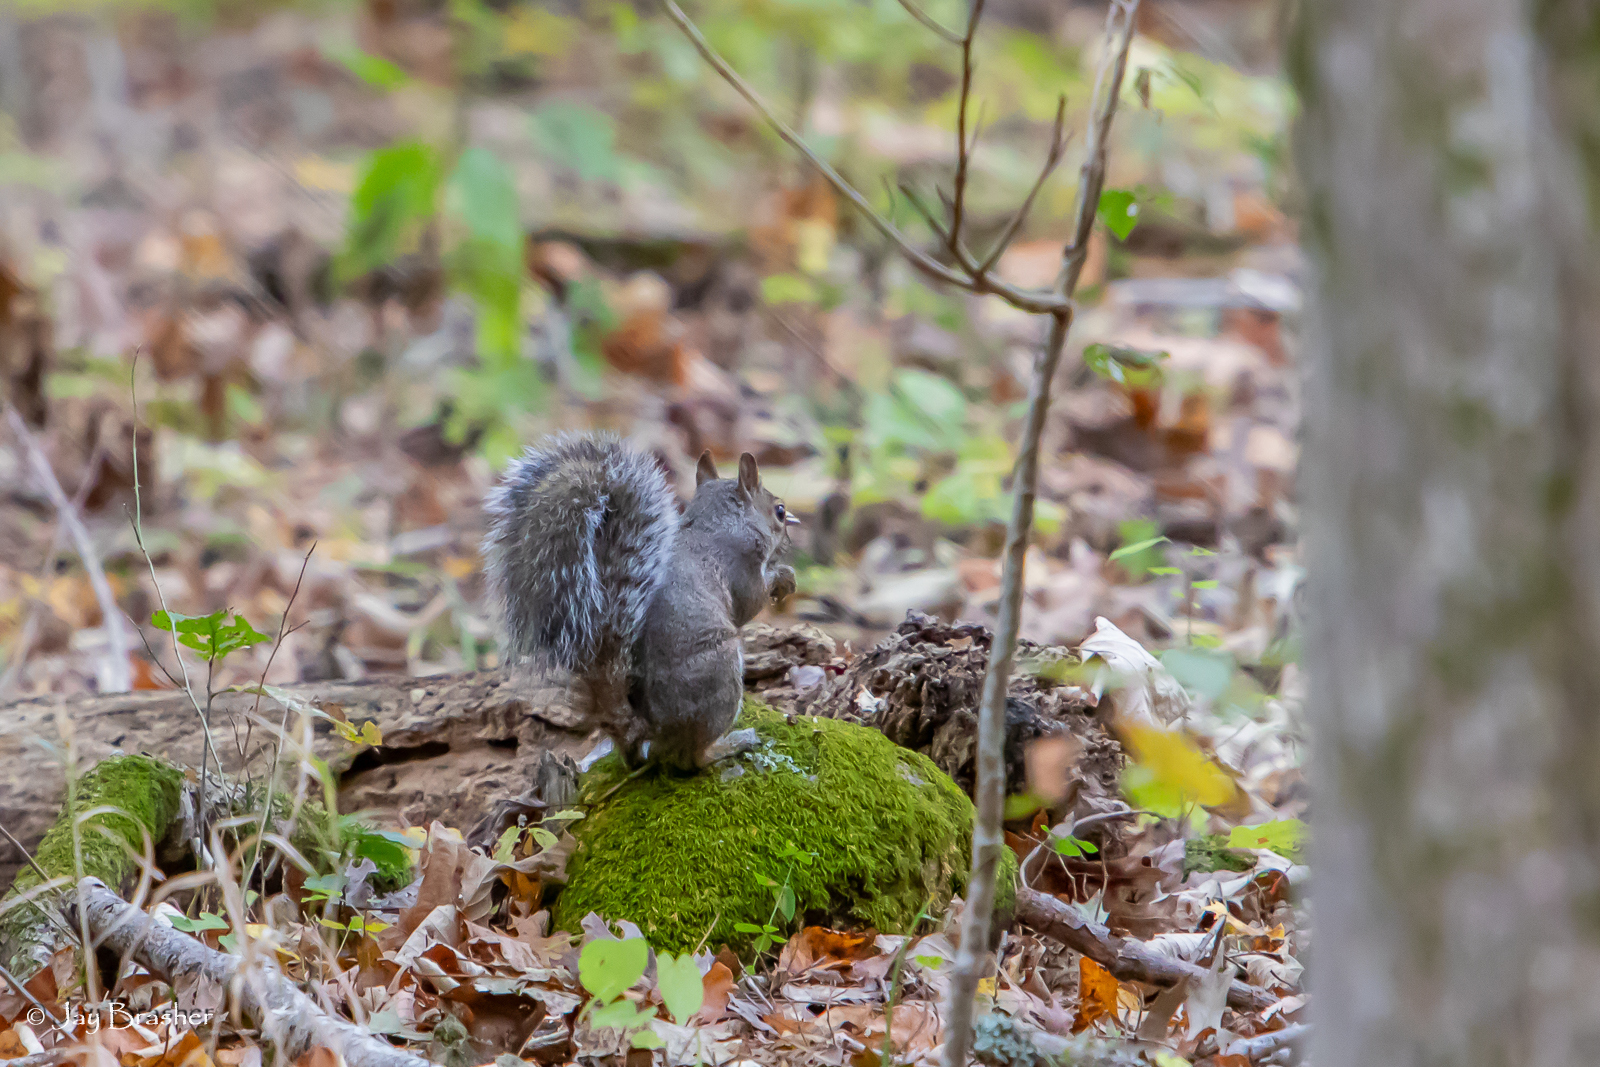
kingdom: Animalia
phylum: Chordata
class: Mammalia
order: Rodentia
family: Sciuridae
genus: Sciurus
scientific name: Sciurus carolinensis
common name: Eastern gray squirrel
